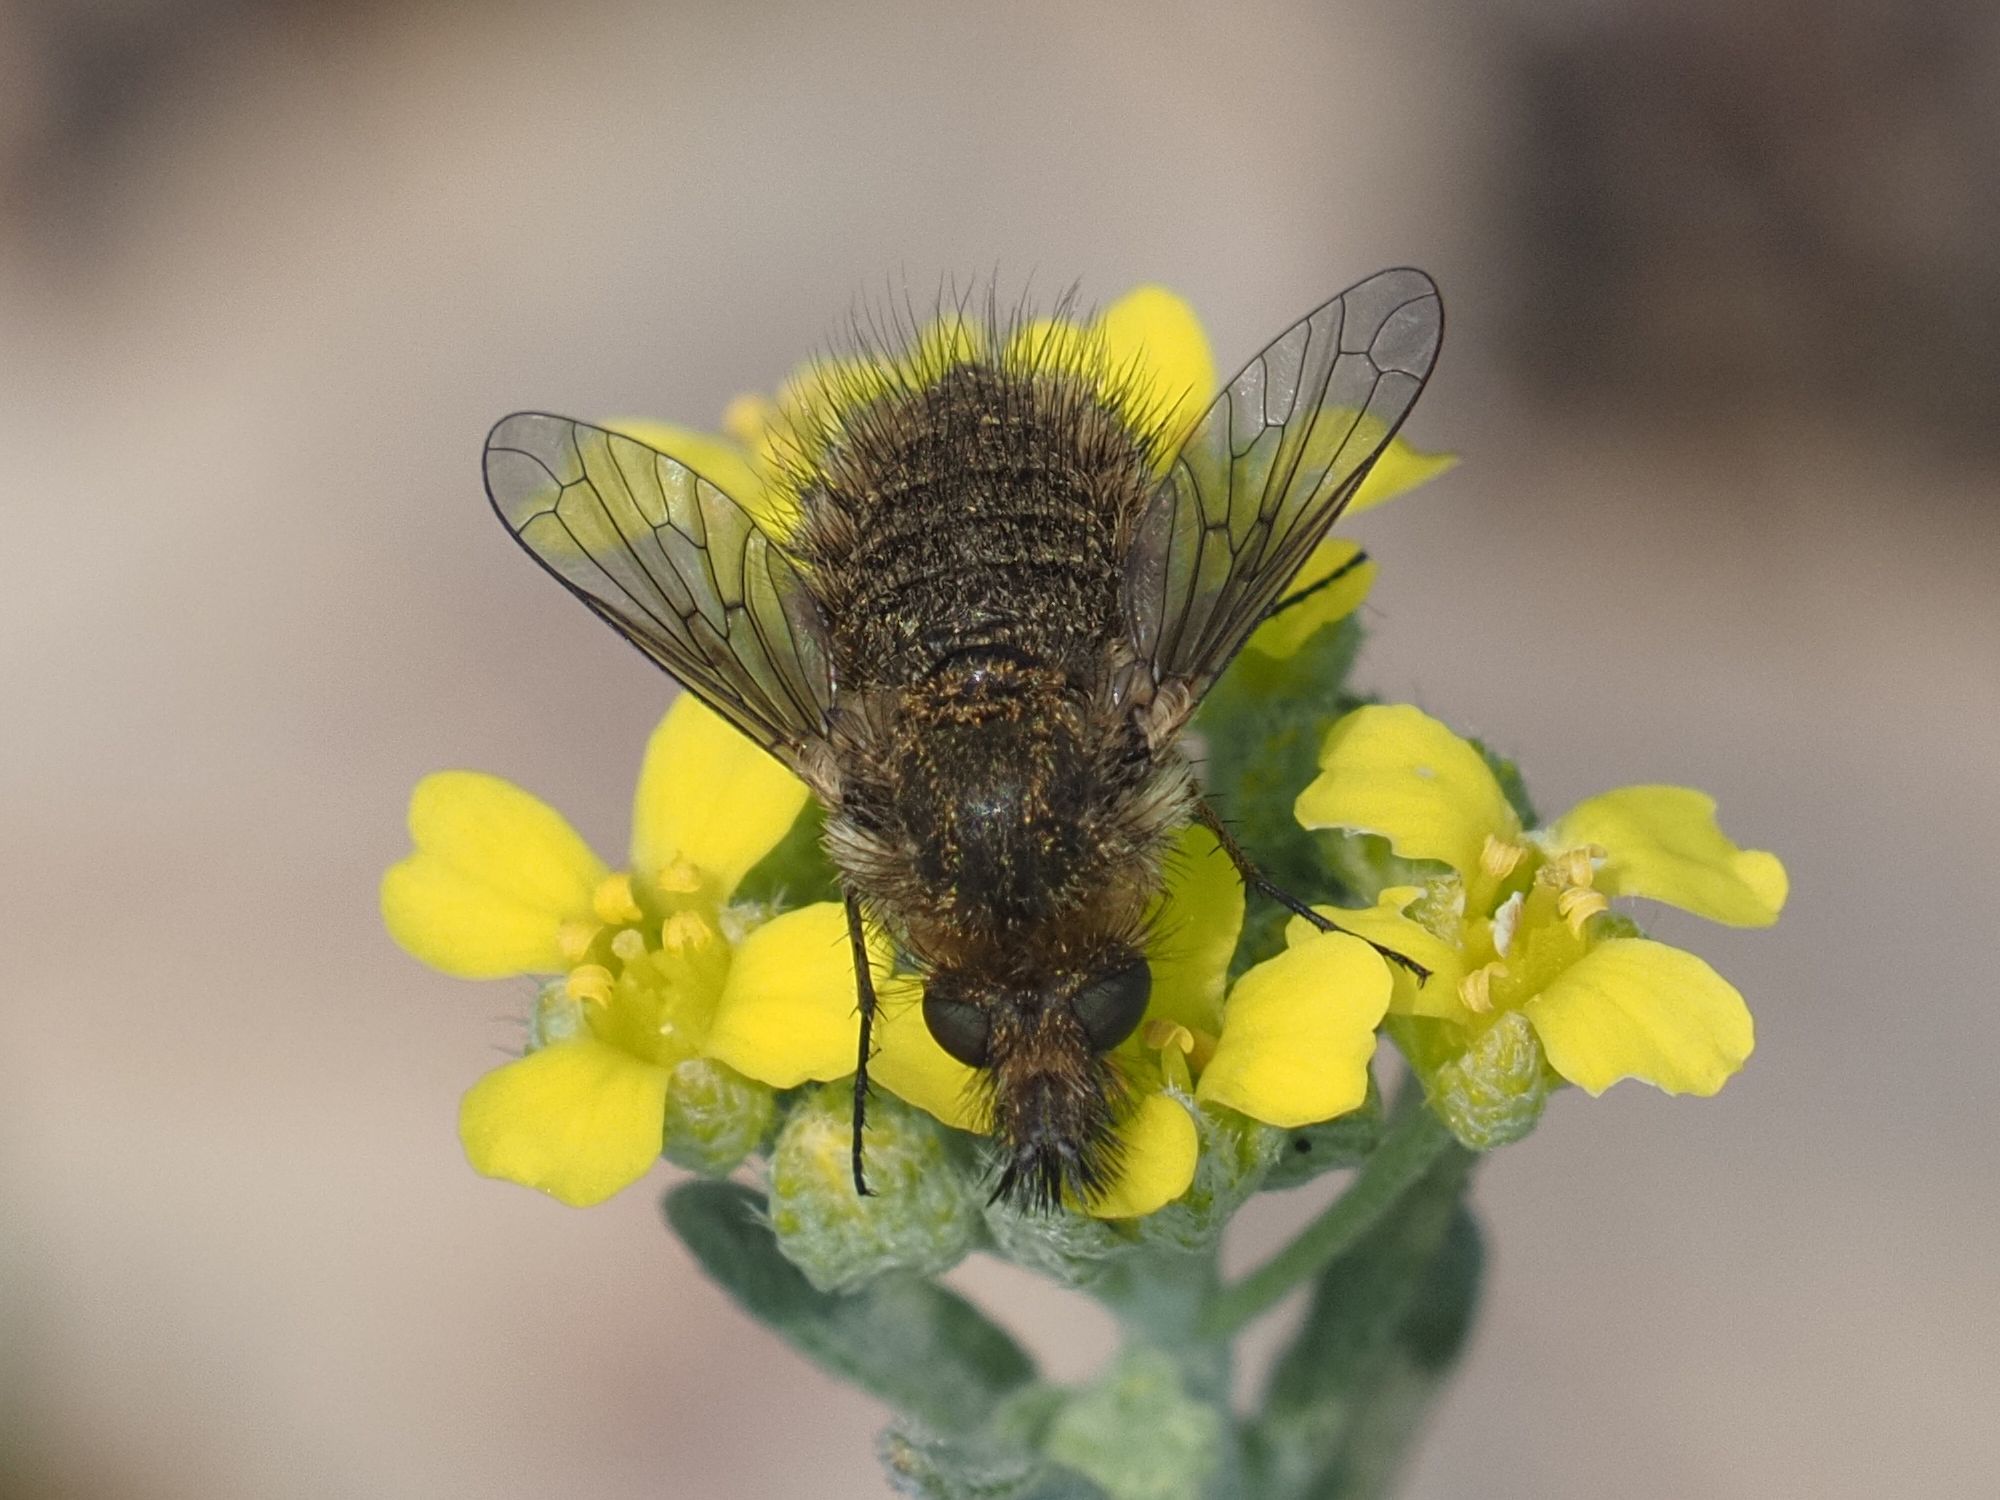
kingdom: Animalia
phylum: Arthropoda
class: Insecta
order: Diptera
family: Bombyliidae
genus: Conophorus
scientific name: Conophorus virescens
